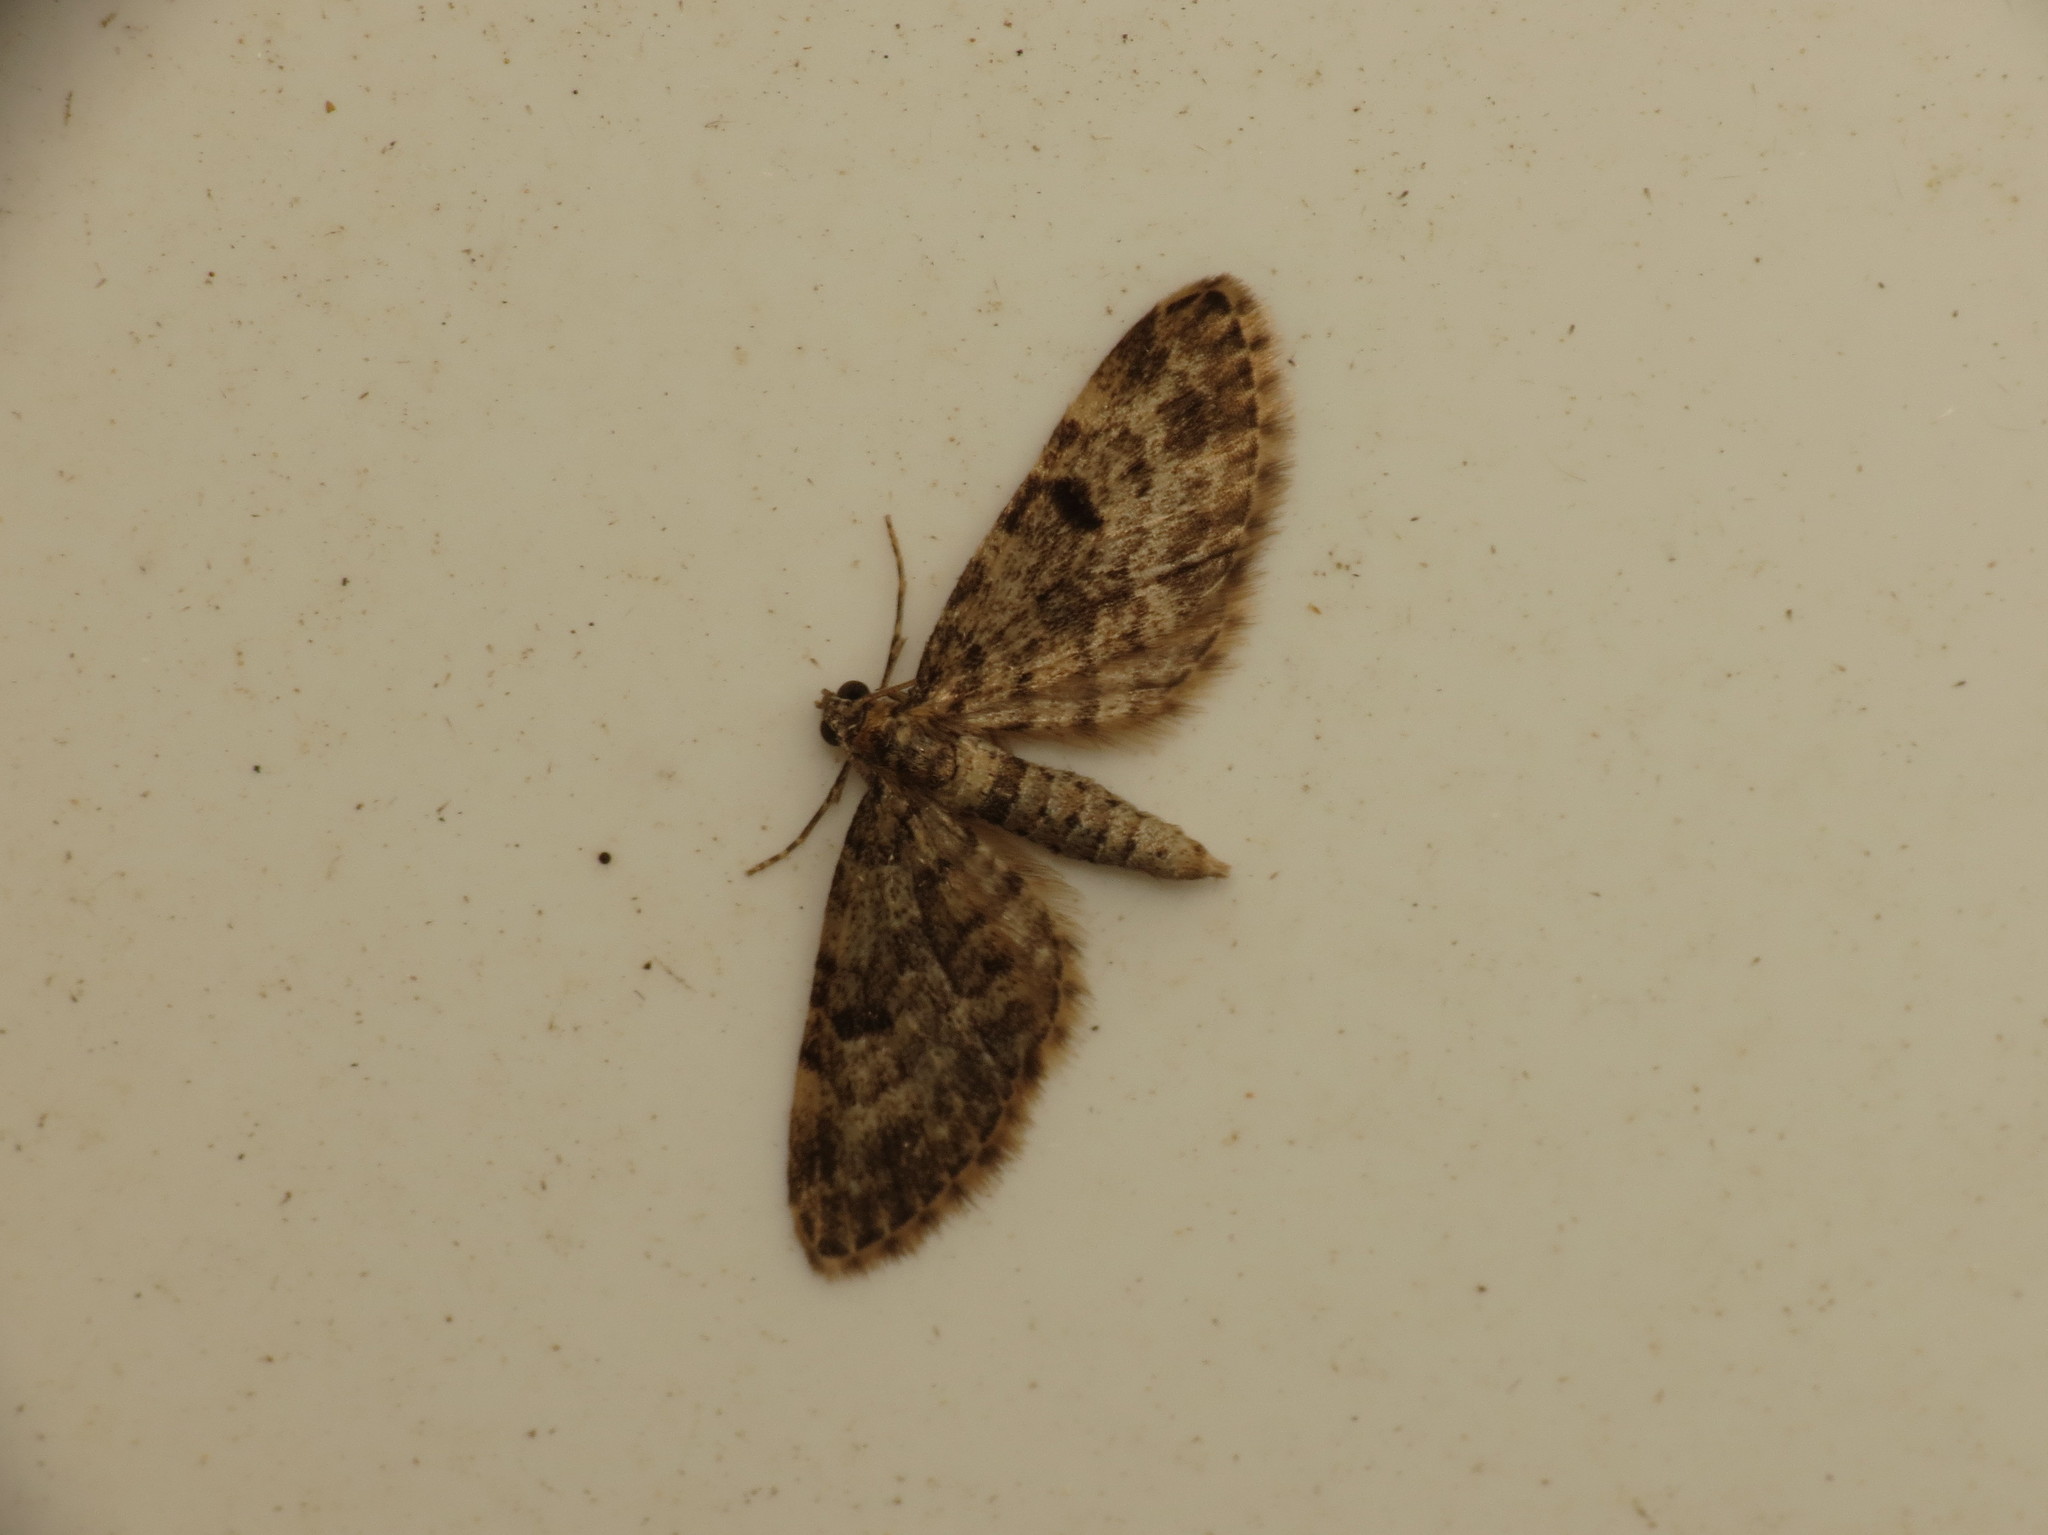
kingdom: Animalia
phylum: Arthropoda
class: Insecta
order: Lepidoptera
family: Geometridae
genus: Eupithecia
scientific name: Eupithecia tantillaria
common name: Dwarf pug
